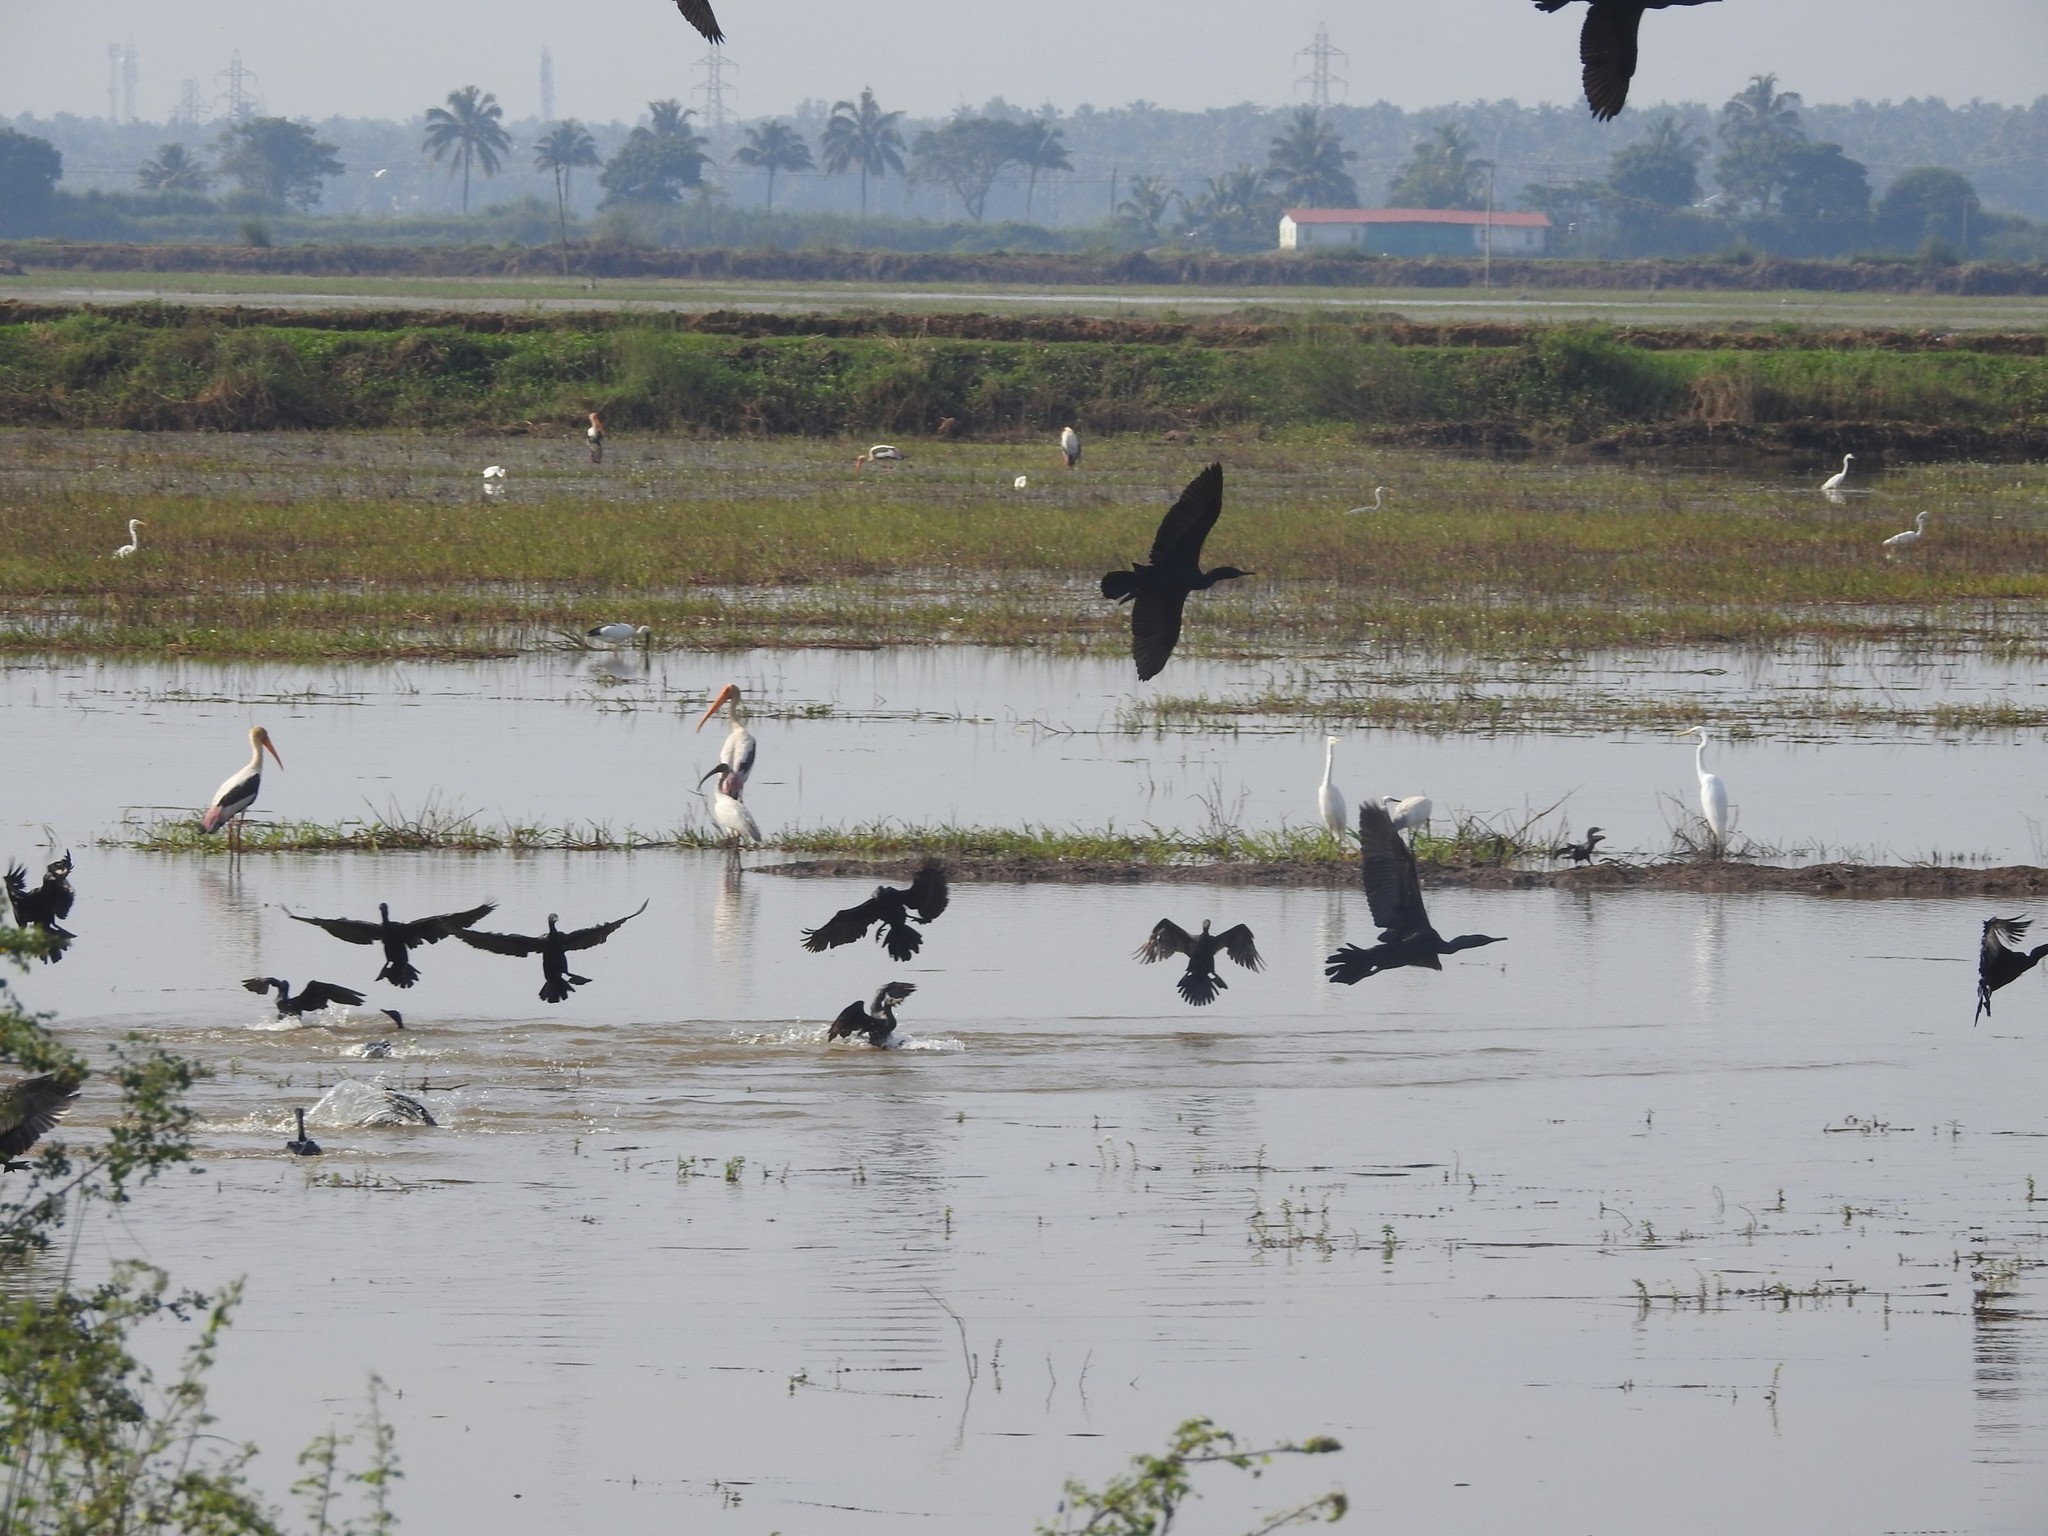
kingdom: Animalia
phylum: Chordata
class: Aves
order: Suliformes
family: Phalacrocoracidae
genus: Phalacrocorax
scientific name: Phalacrocorax carbo
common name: Great cormorant
